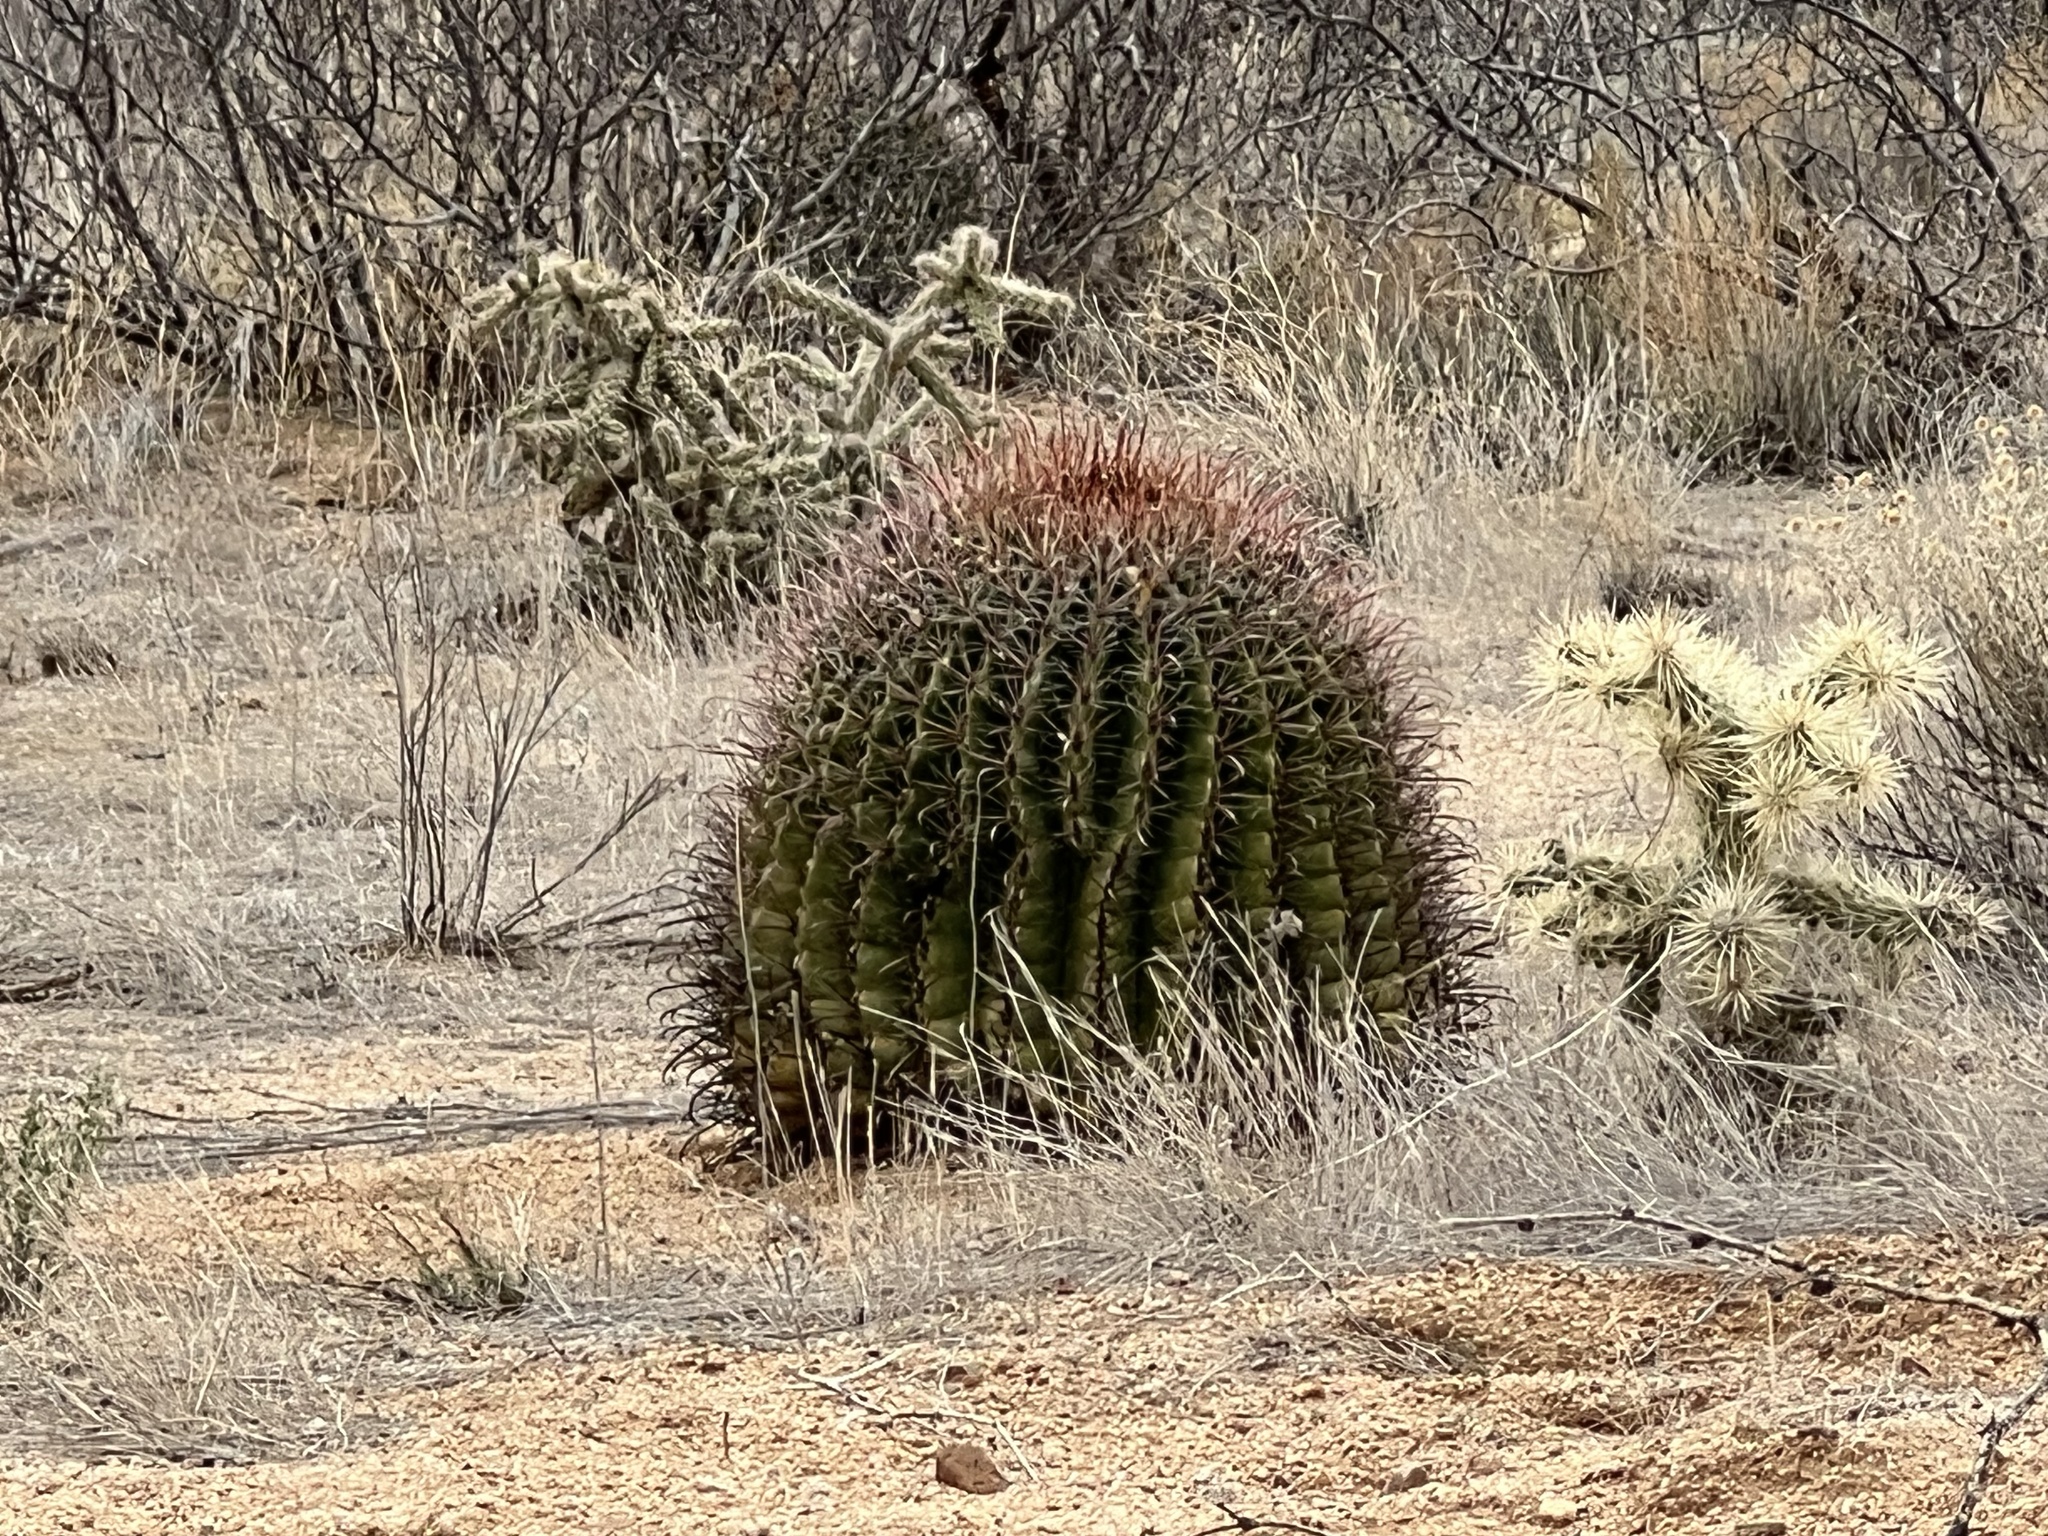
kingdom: Plantae
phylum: Tracheophyta
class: Magnoliopsida
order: Caryophyllales
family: Cactaceae
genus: Ferocactus
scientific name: Ferocactus wislizeni
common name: Candy barrel cactus
